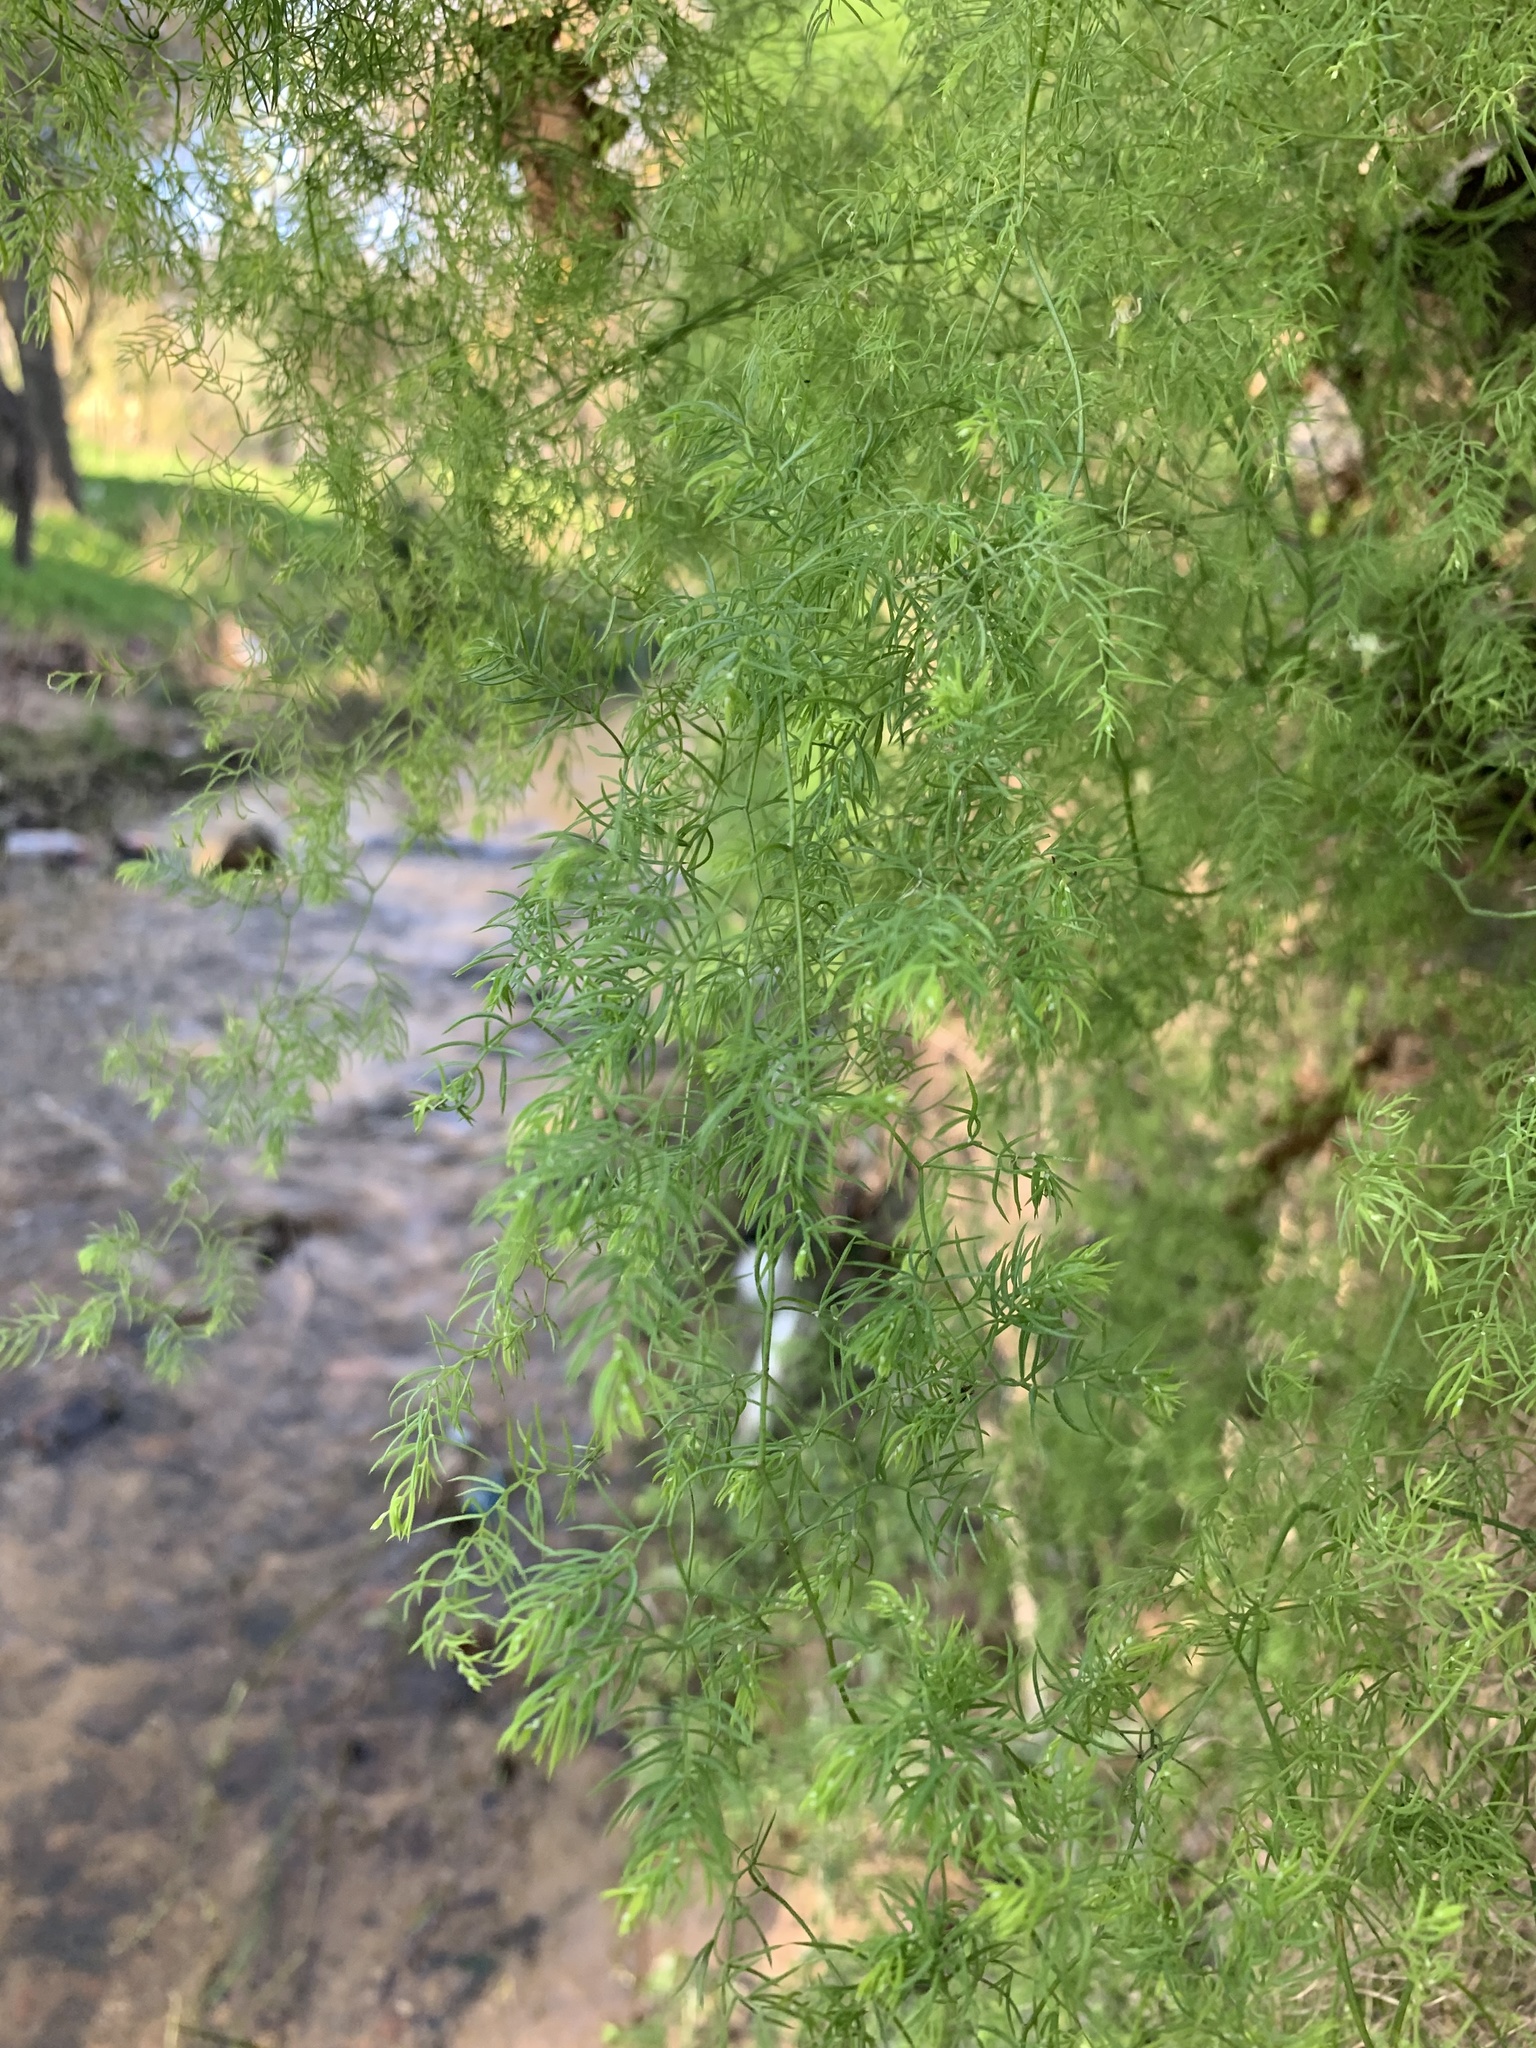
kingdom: Plantae
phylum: Tracheophyta
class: Liliopsida
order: Asparagales
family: Asparagaceae
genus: Asparagus
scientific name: Asparagus declinatus
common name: Bridal-creeper
